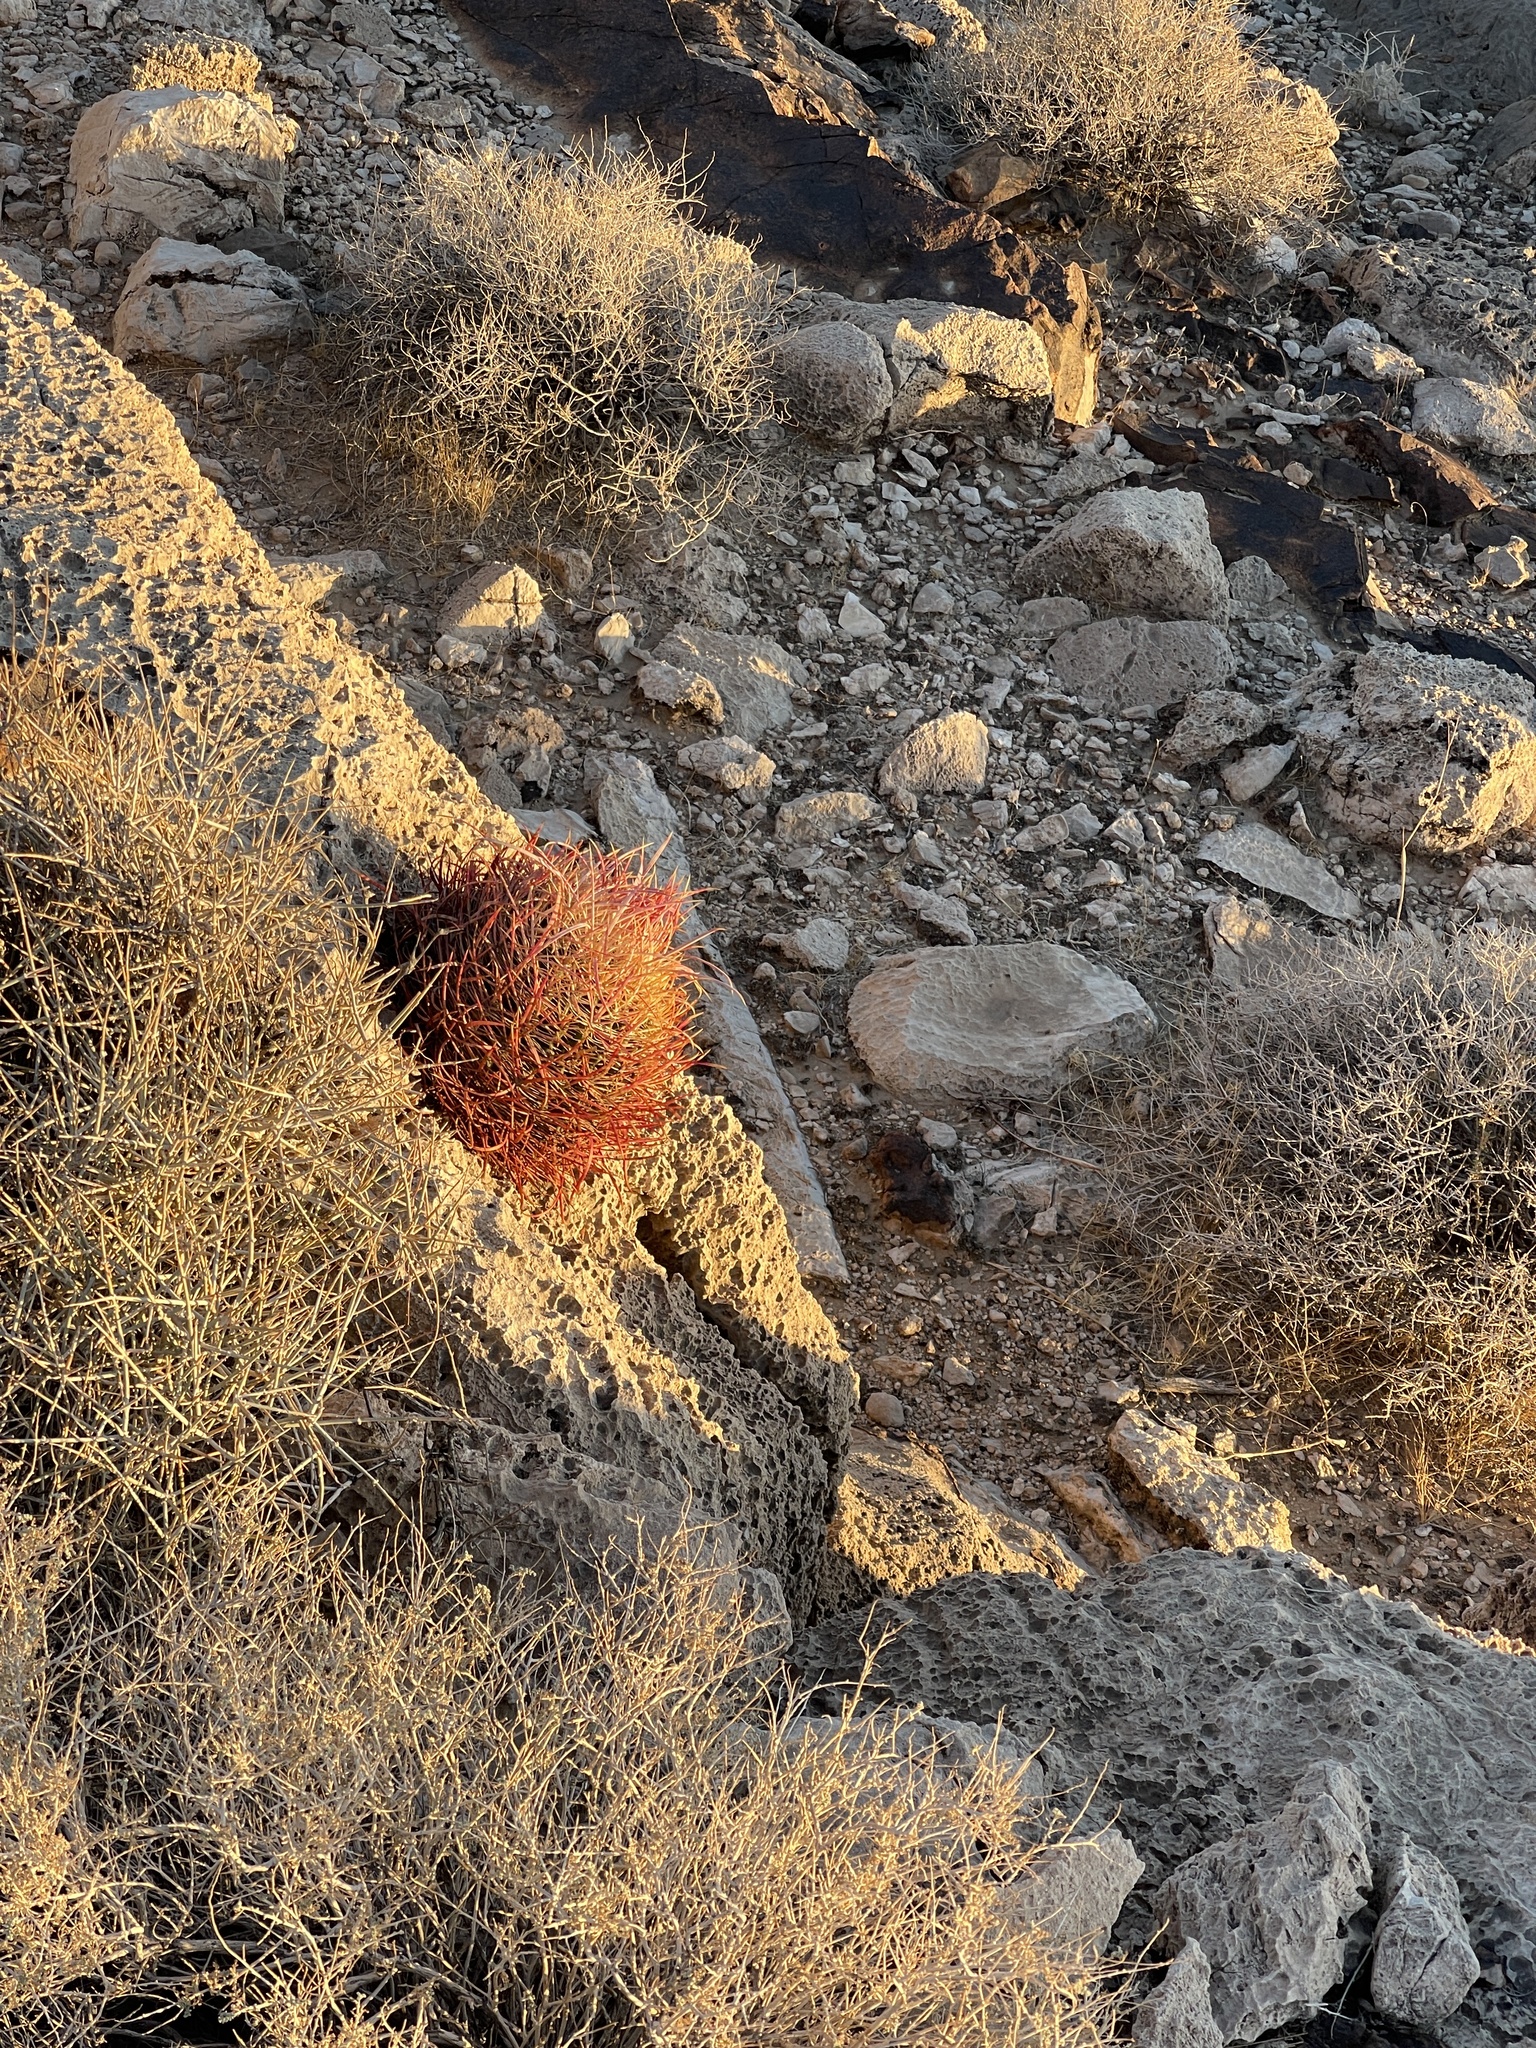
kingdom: Plantae
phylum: Tracheophyta
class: Magnoliopsida
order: Caryophyllales
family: Cactaceae
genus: Ferocactus
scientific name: Ferocactus cylindraceus
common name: California barrel cactus
